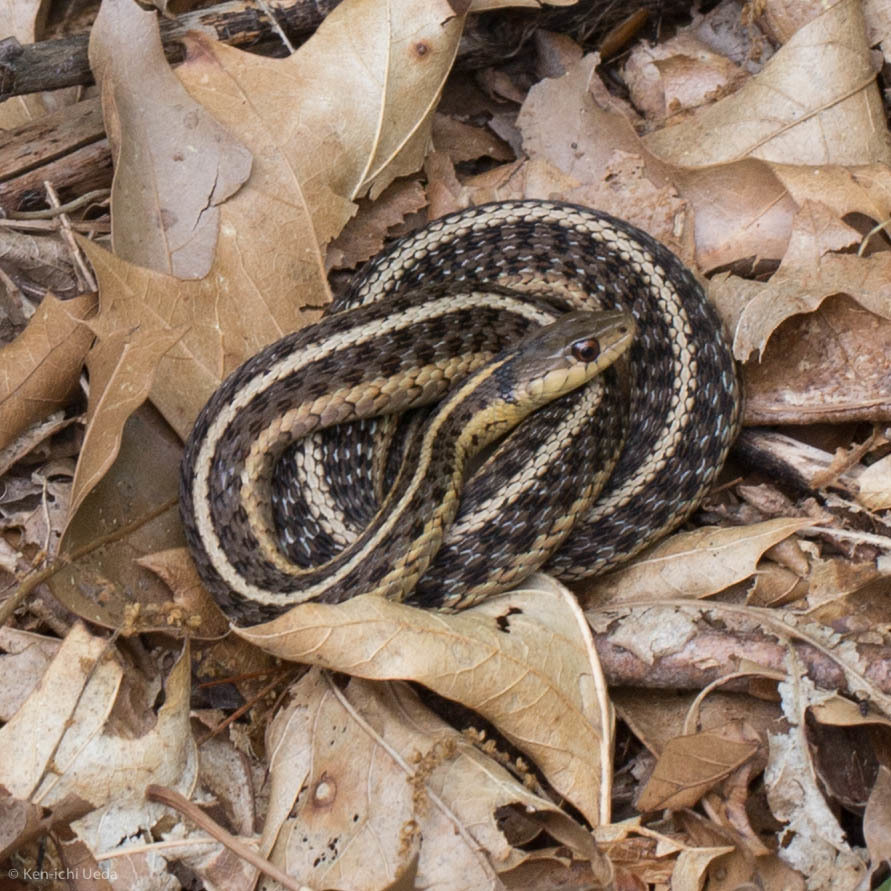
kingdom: Animalia
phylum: Chordata
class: Squamata
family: Colubridae
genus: Thamnophis
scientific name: Thamnophis sirtalis
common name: Common garter snake
